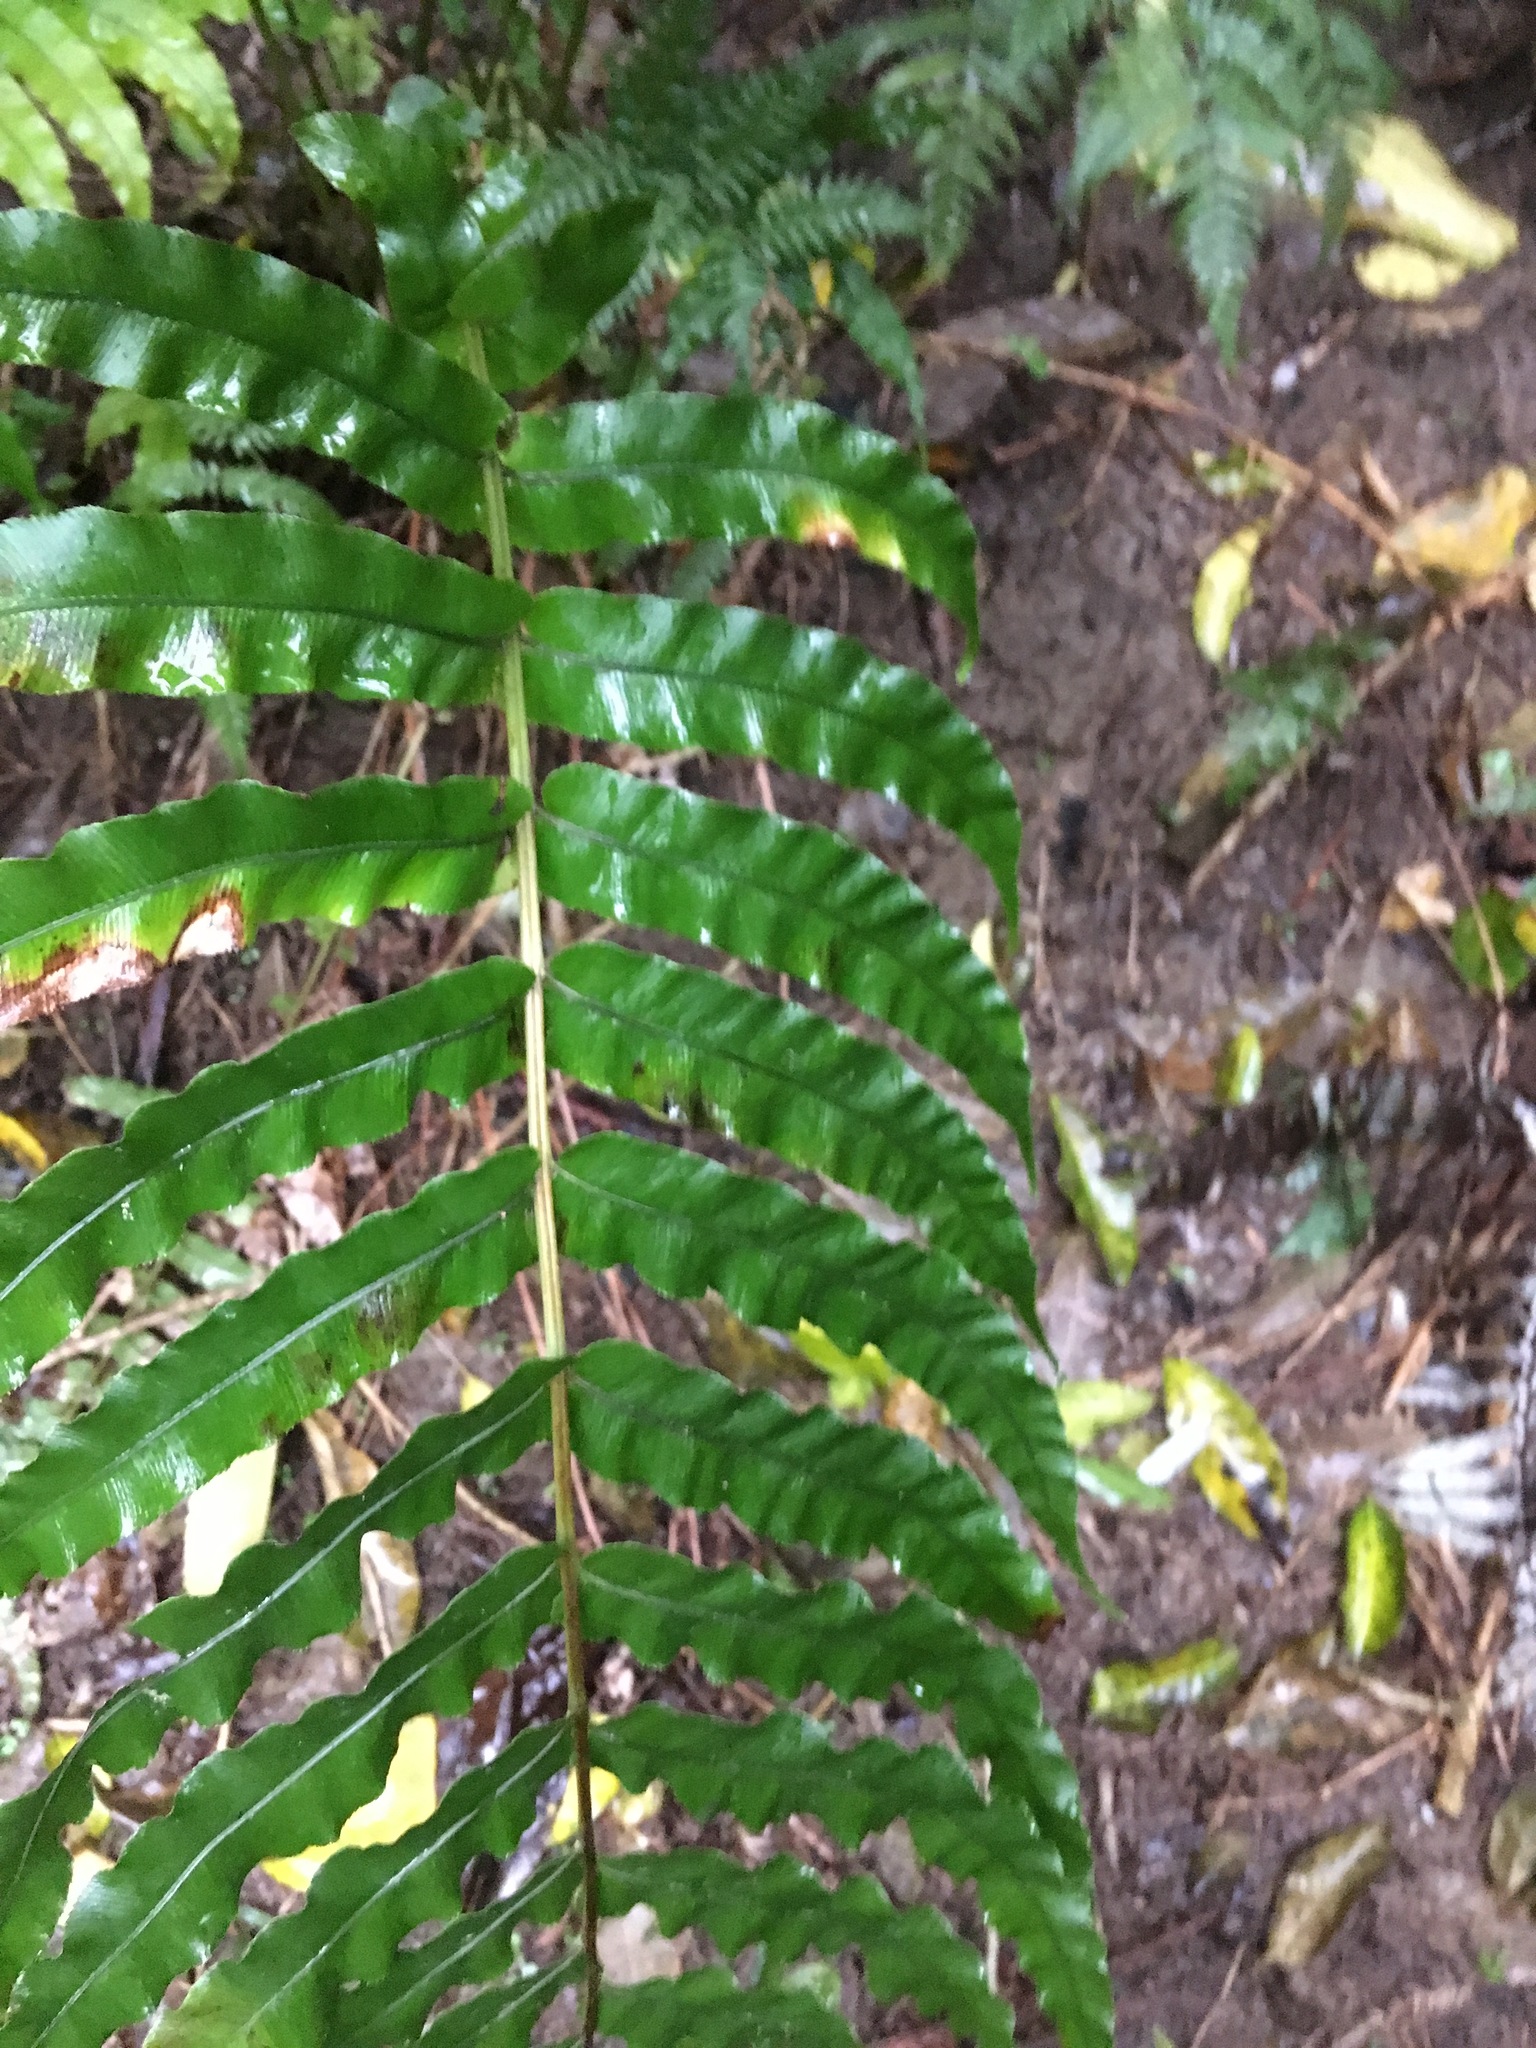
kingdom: Plantae
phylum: Tracheophyta
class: Polypodiopsida
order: Polypodiales
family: Blechnaceae
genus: Parablechnum
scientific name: Parablechnum novae-zelandiae
